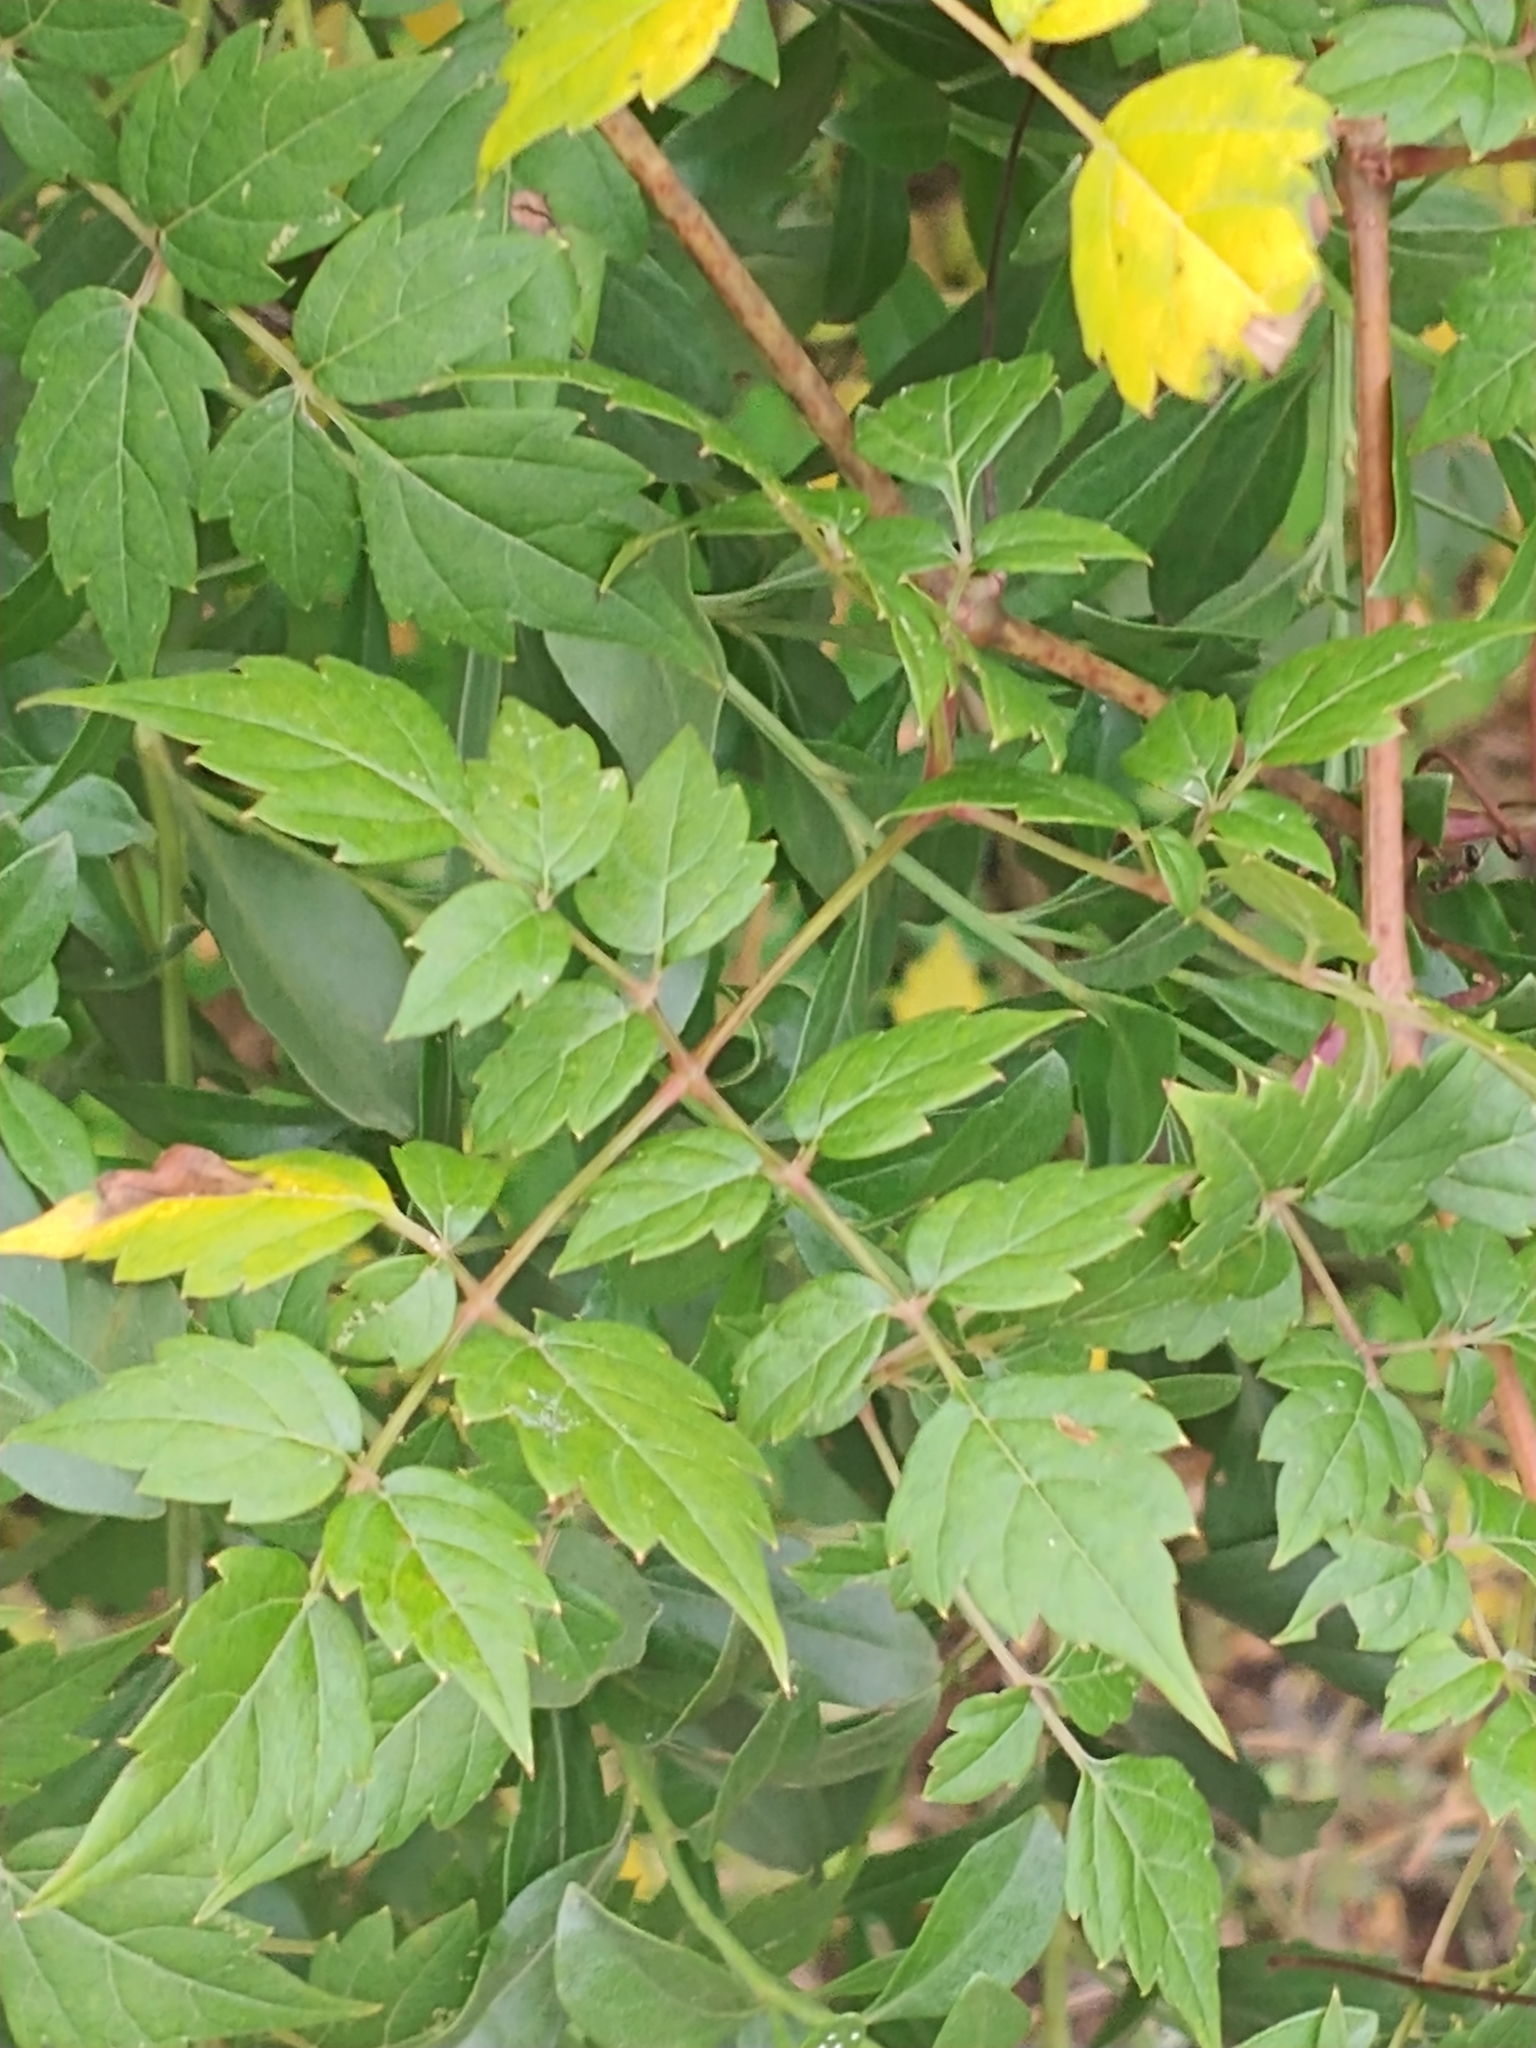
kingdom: Plantae
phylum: Tracheophyta
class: Magnoliopsida
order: Vitales
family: Vitaceae
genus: Nekemias
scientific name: Nekemias arborea
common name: Peppervine
